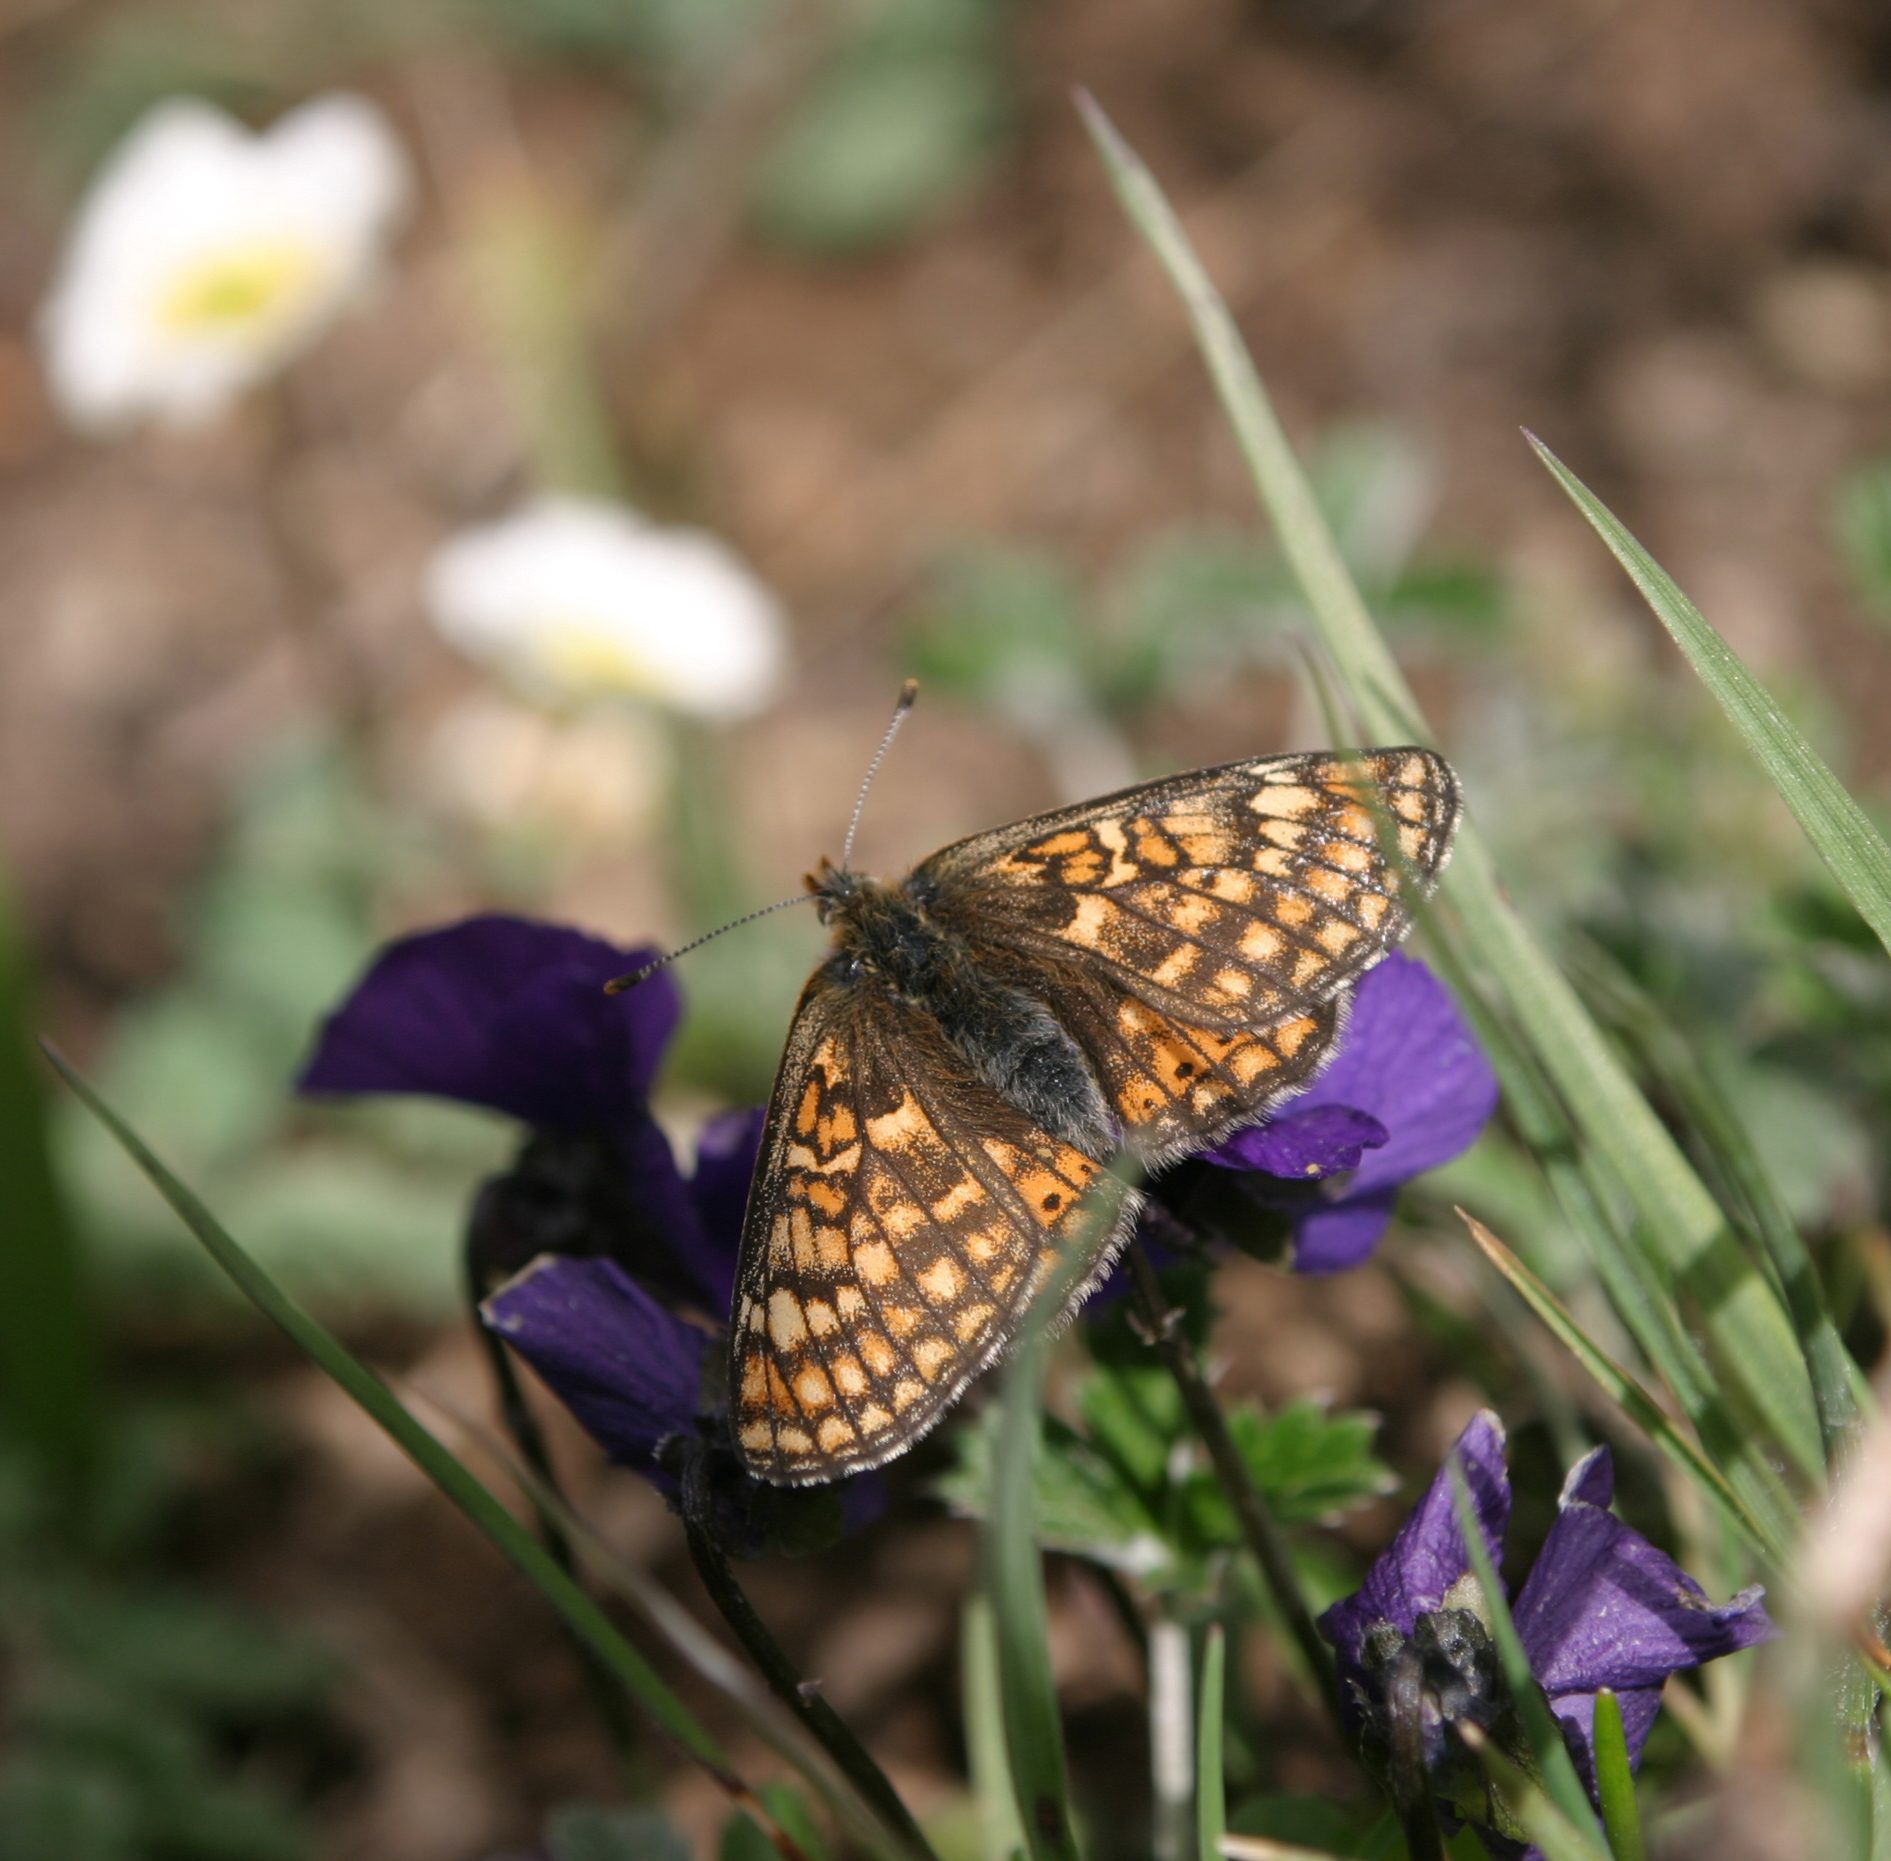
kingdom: Plantae
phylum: Tracheophyta
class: Magnoliopsida
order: Malpighiales
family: Violaceae
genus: Viola
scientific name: Viola altaica
